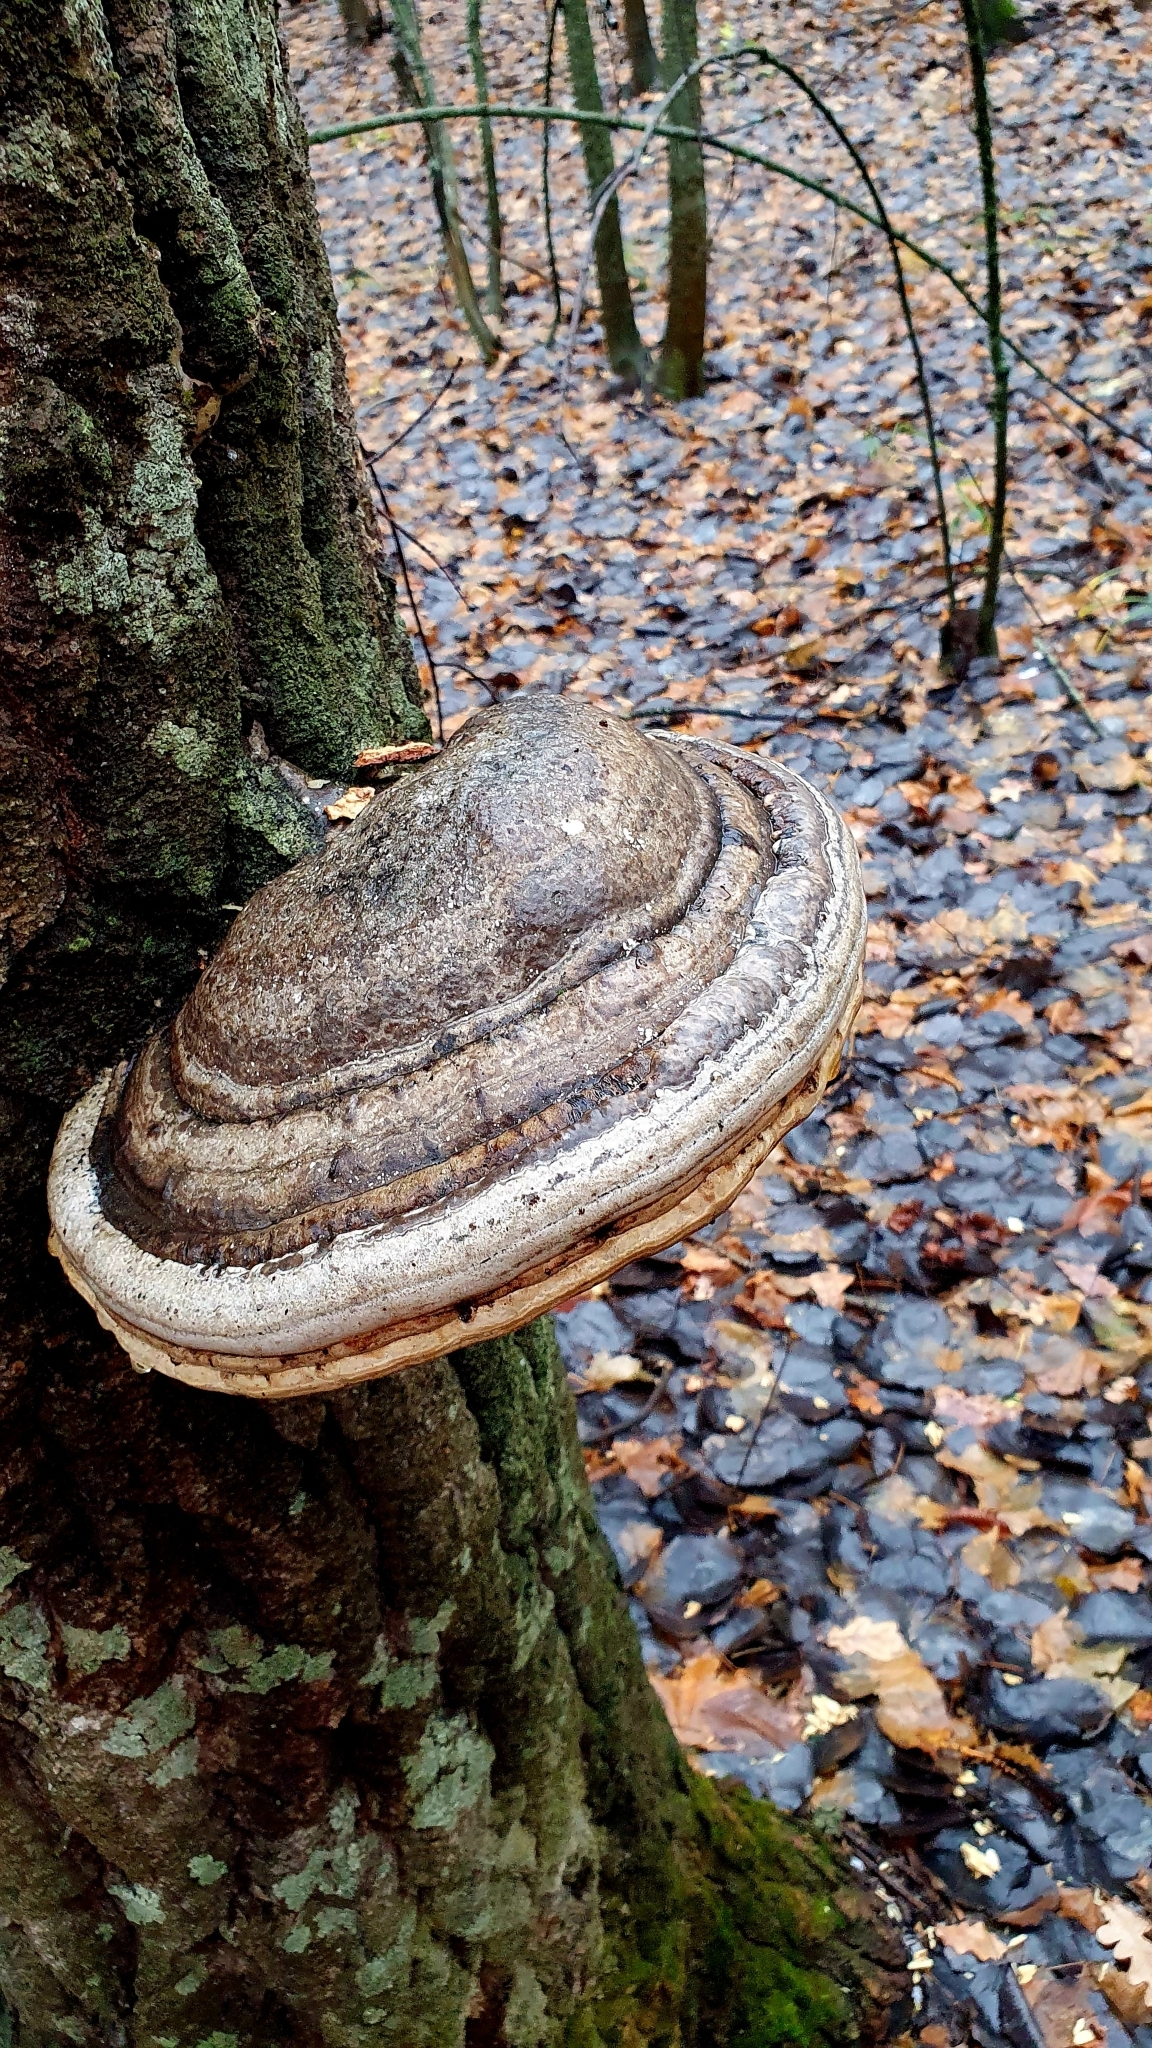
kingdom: Fungi
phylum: Basidiomycota
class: Agaricomycetes
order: Polyporales
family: Polyporaceae
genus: Fomes
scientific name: Fomes fomentarius
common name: Hoof fungus
